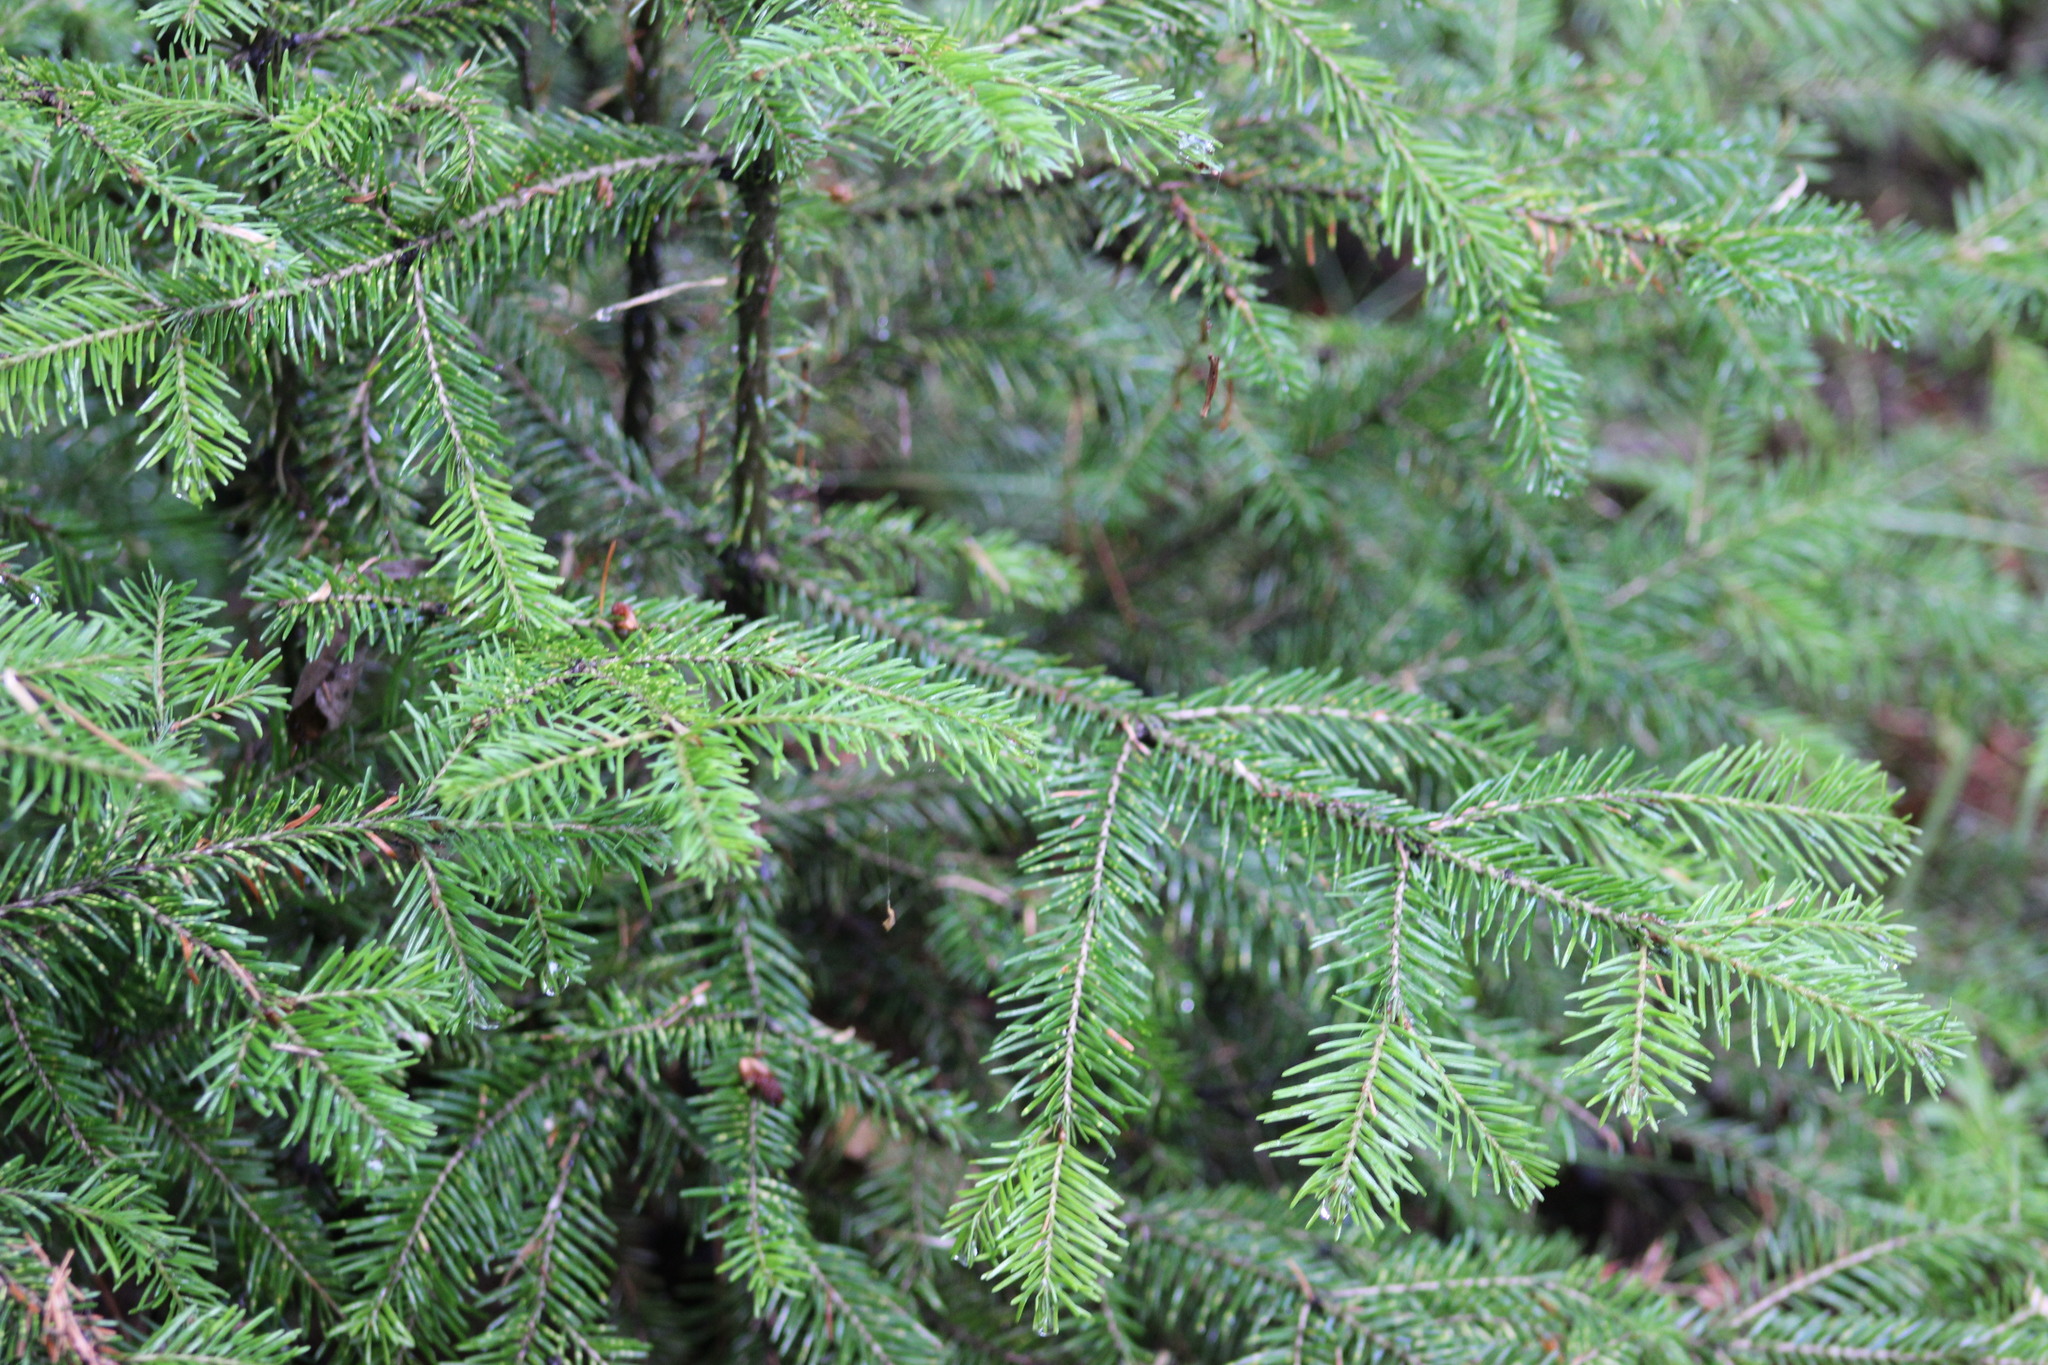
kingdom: Plantae
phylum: Tracheophyta
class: Pinopsida
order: Pinales
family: Pinaceae
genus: Abies
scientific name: Abies sibirica
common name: Siberian fir
